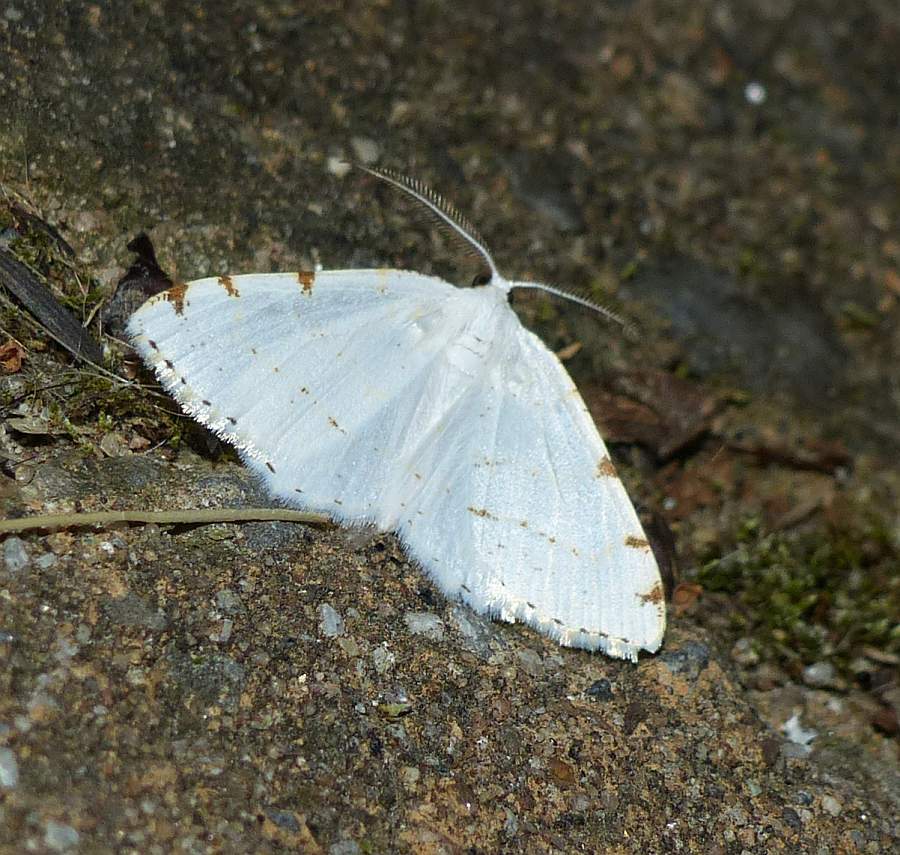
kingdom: Animalia
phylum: Arthropoda
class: Insecta
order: Lepidoptera
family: Geometridae
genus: Macaria
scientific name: Macaria pustularia
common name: Lesser maple spanworm moth
